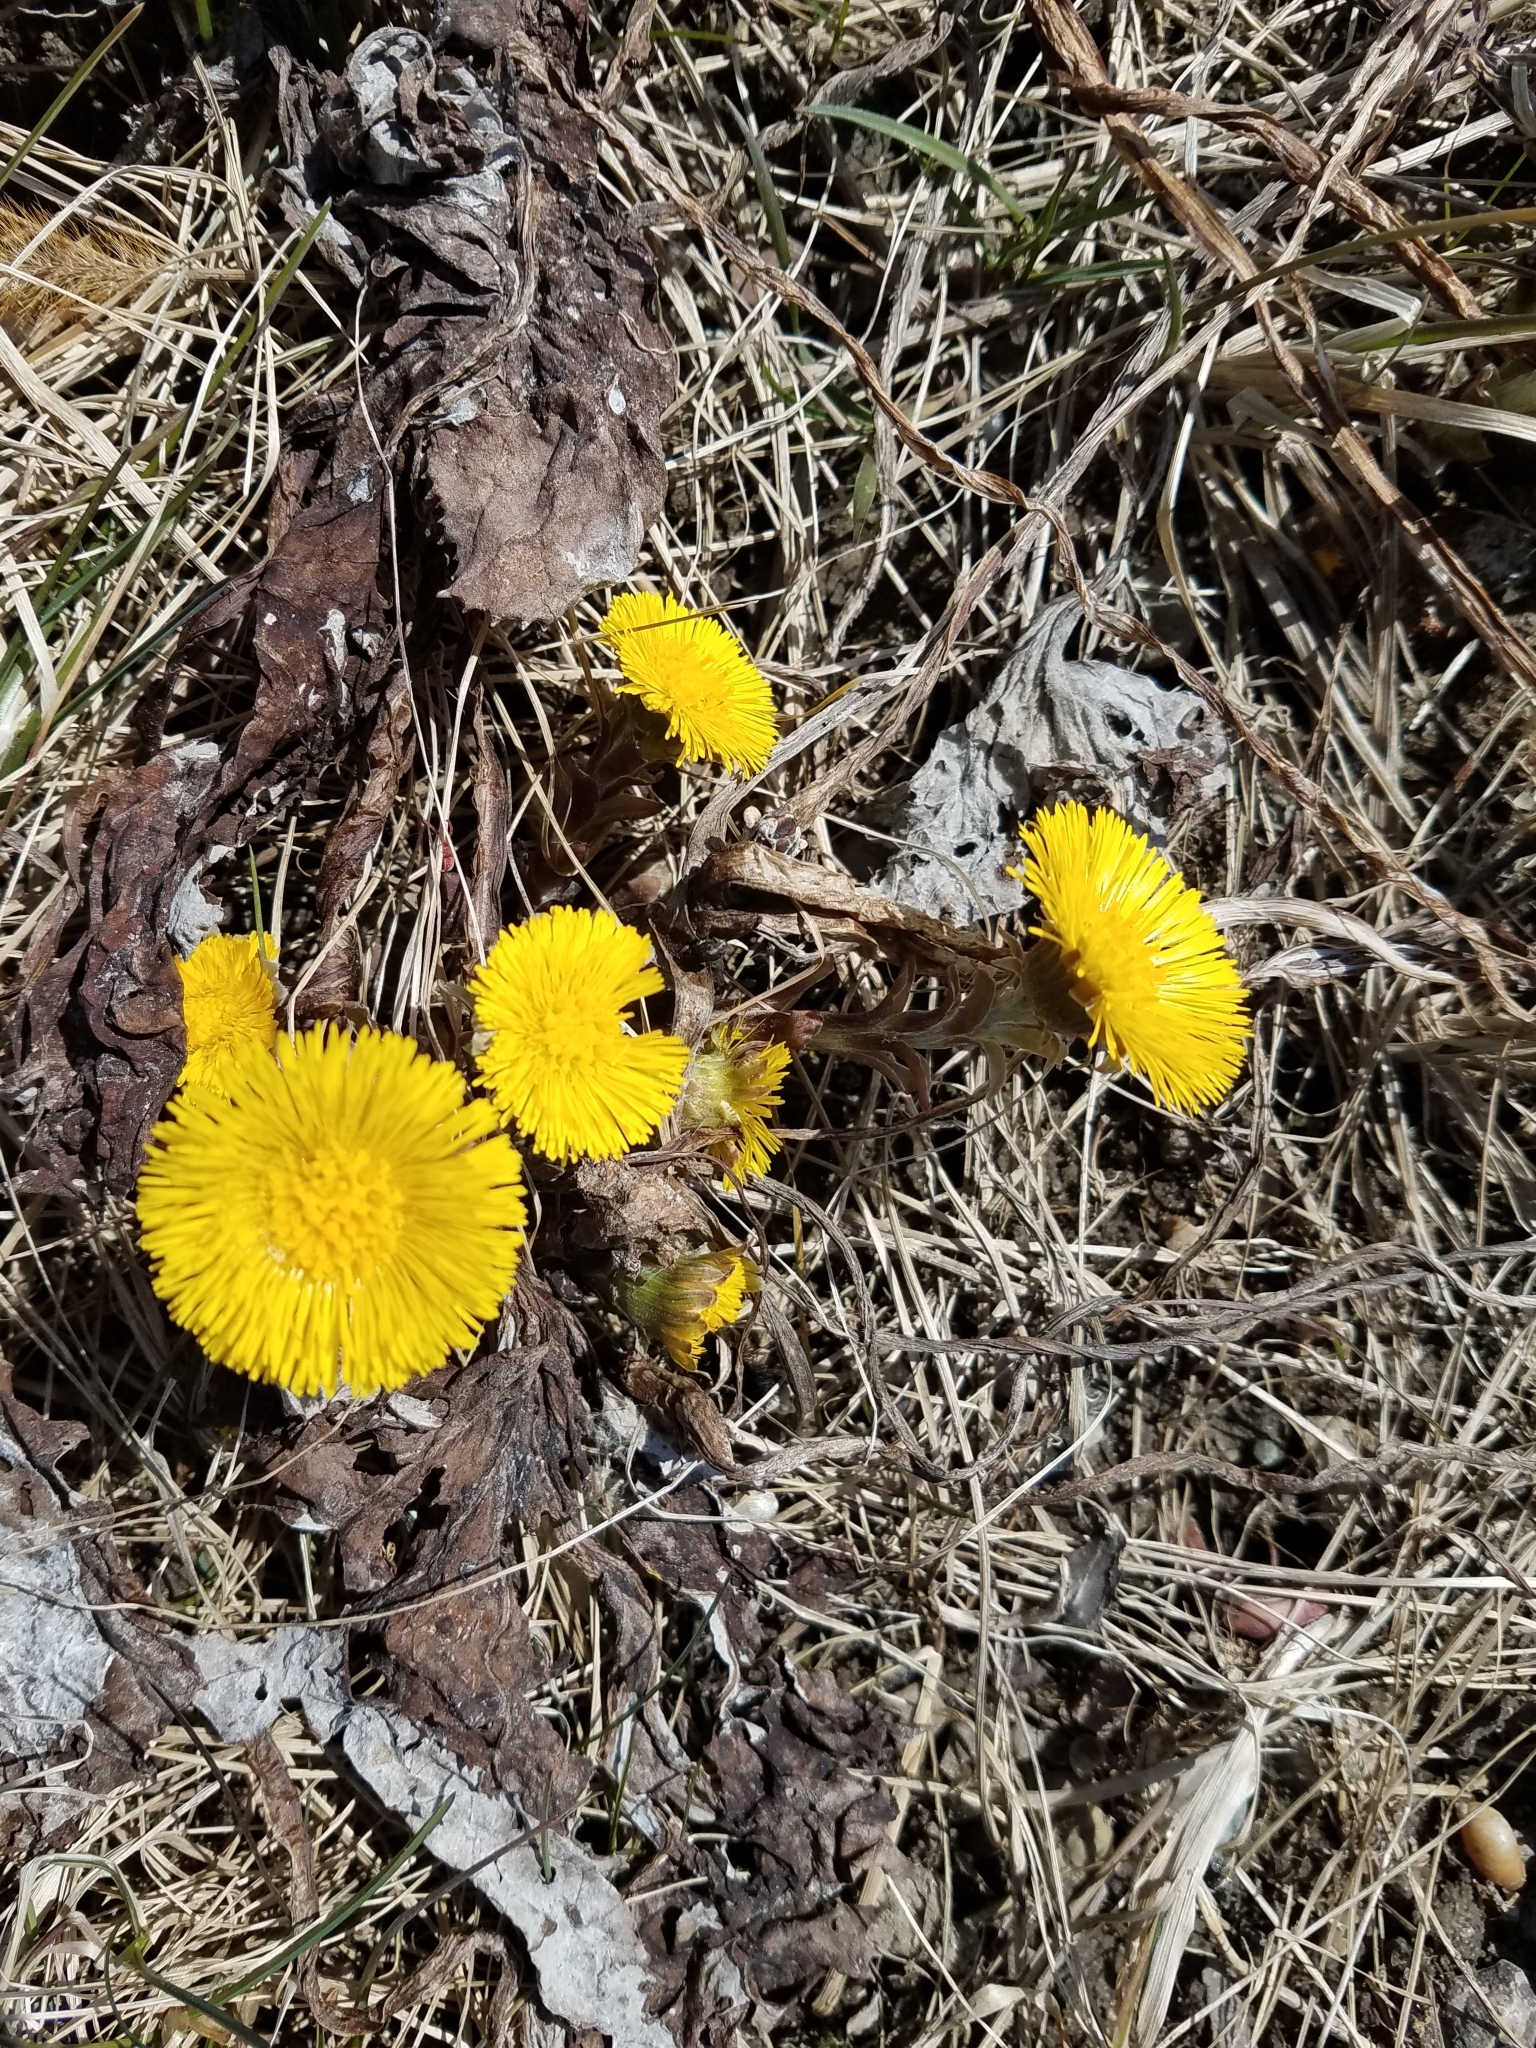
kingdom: Plantae
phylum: Tracheophyta
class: Magnoliopsida
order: Asterales
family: Asteraceae
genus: Tussilago
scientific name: Tussilago farfara
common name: Coltsfoot
